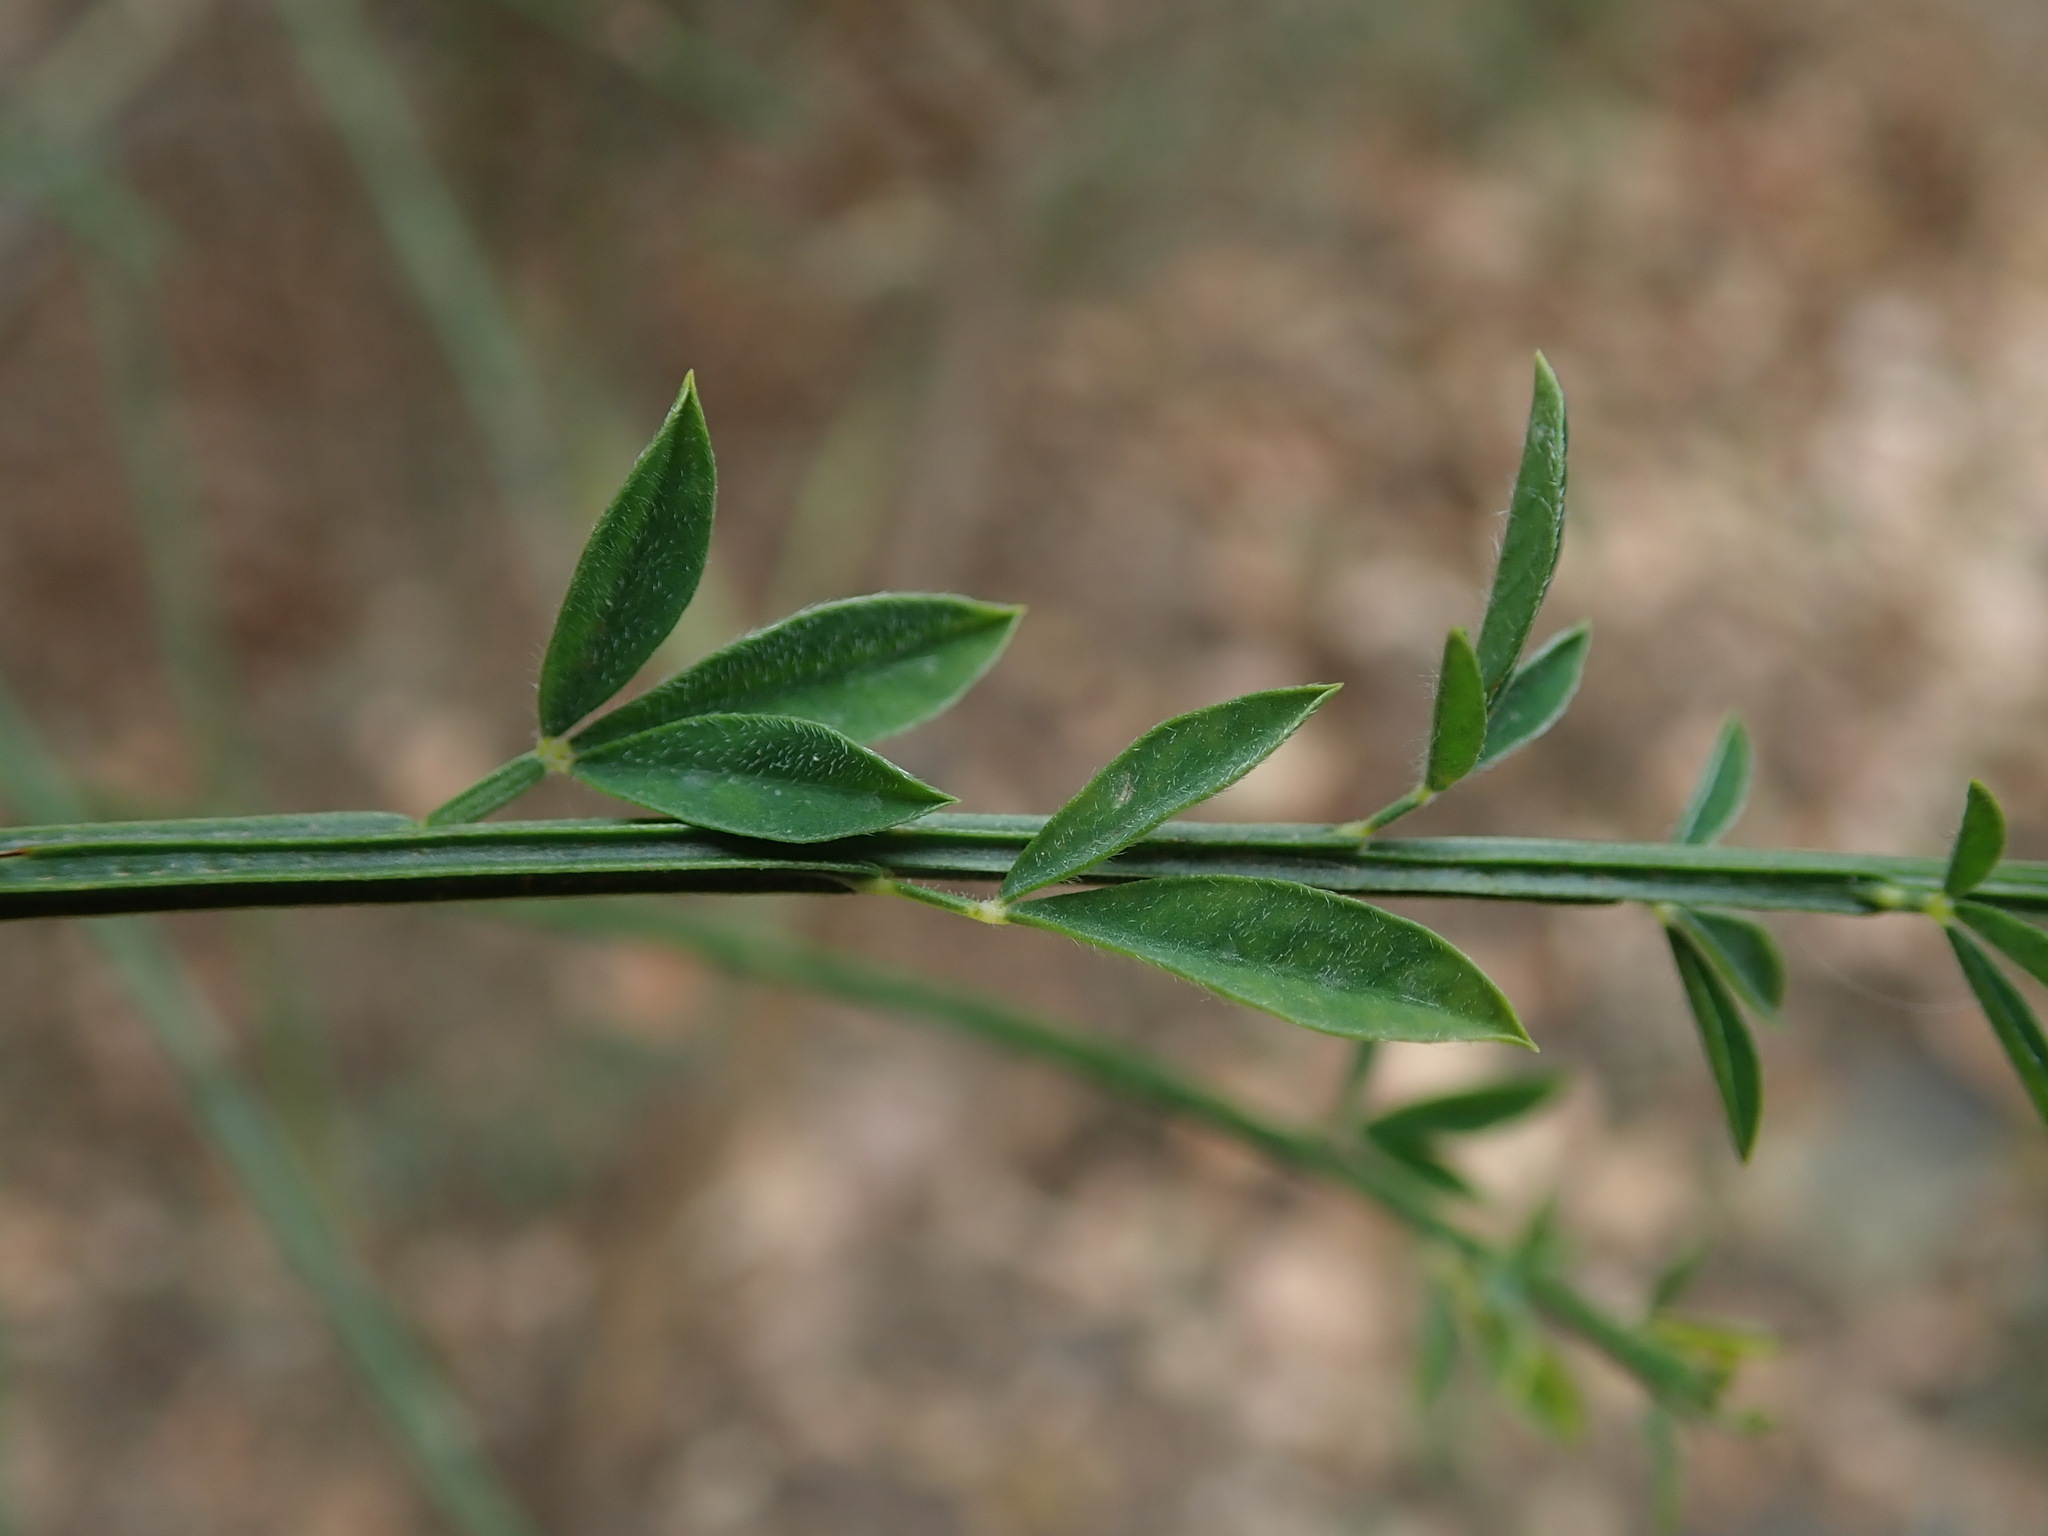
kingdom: Plantae
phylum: Tracheophyta
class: Magnoliopsida
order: Fabales
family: Fabaceae
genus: Cytisus
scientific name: Cytisus scoparius
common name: Scotch broom
